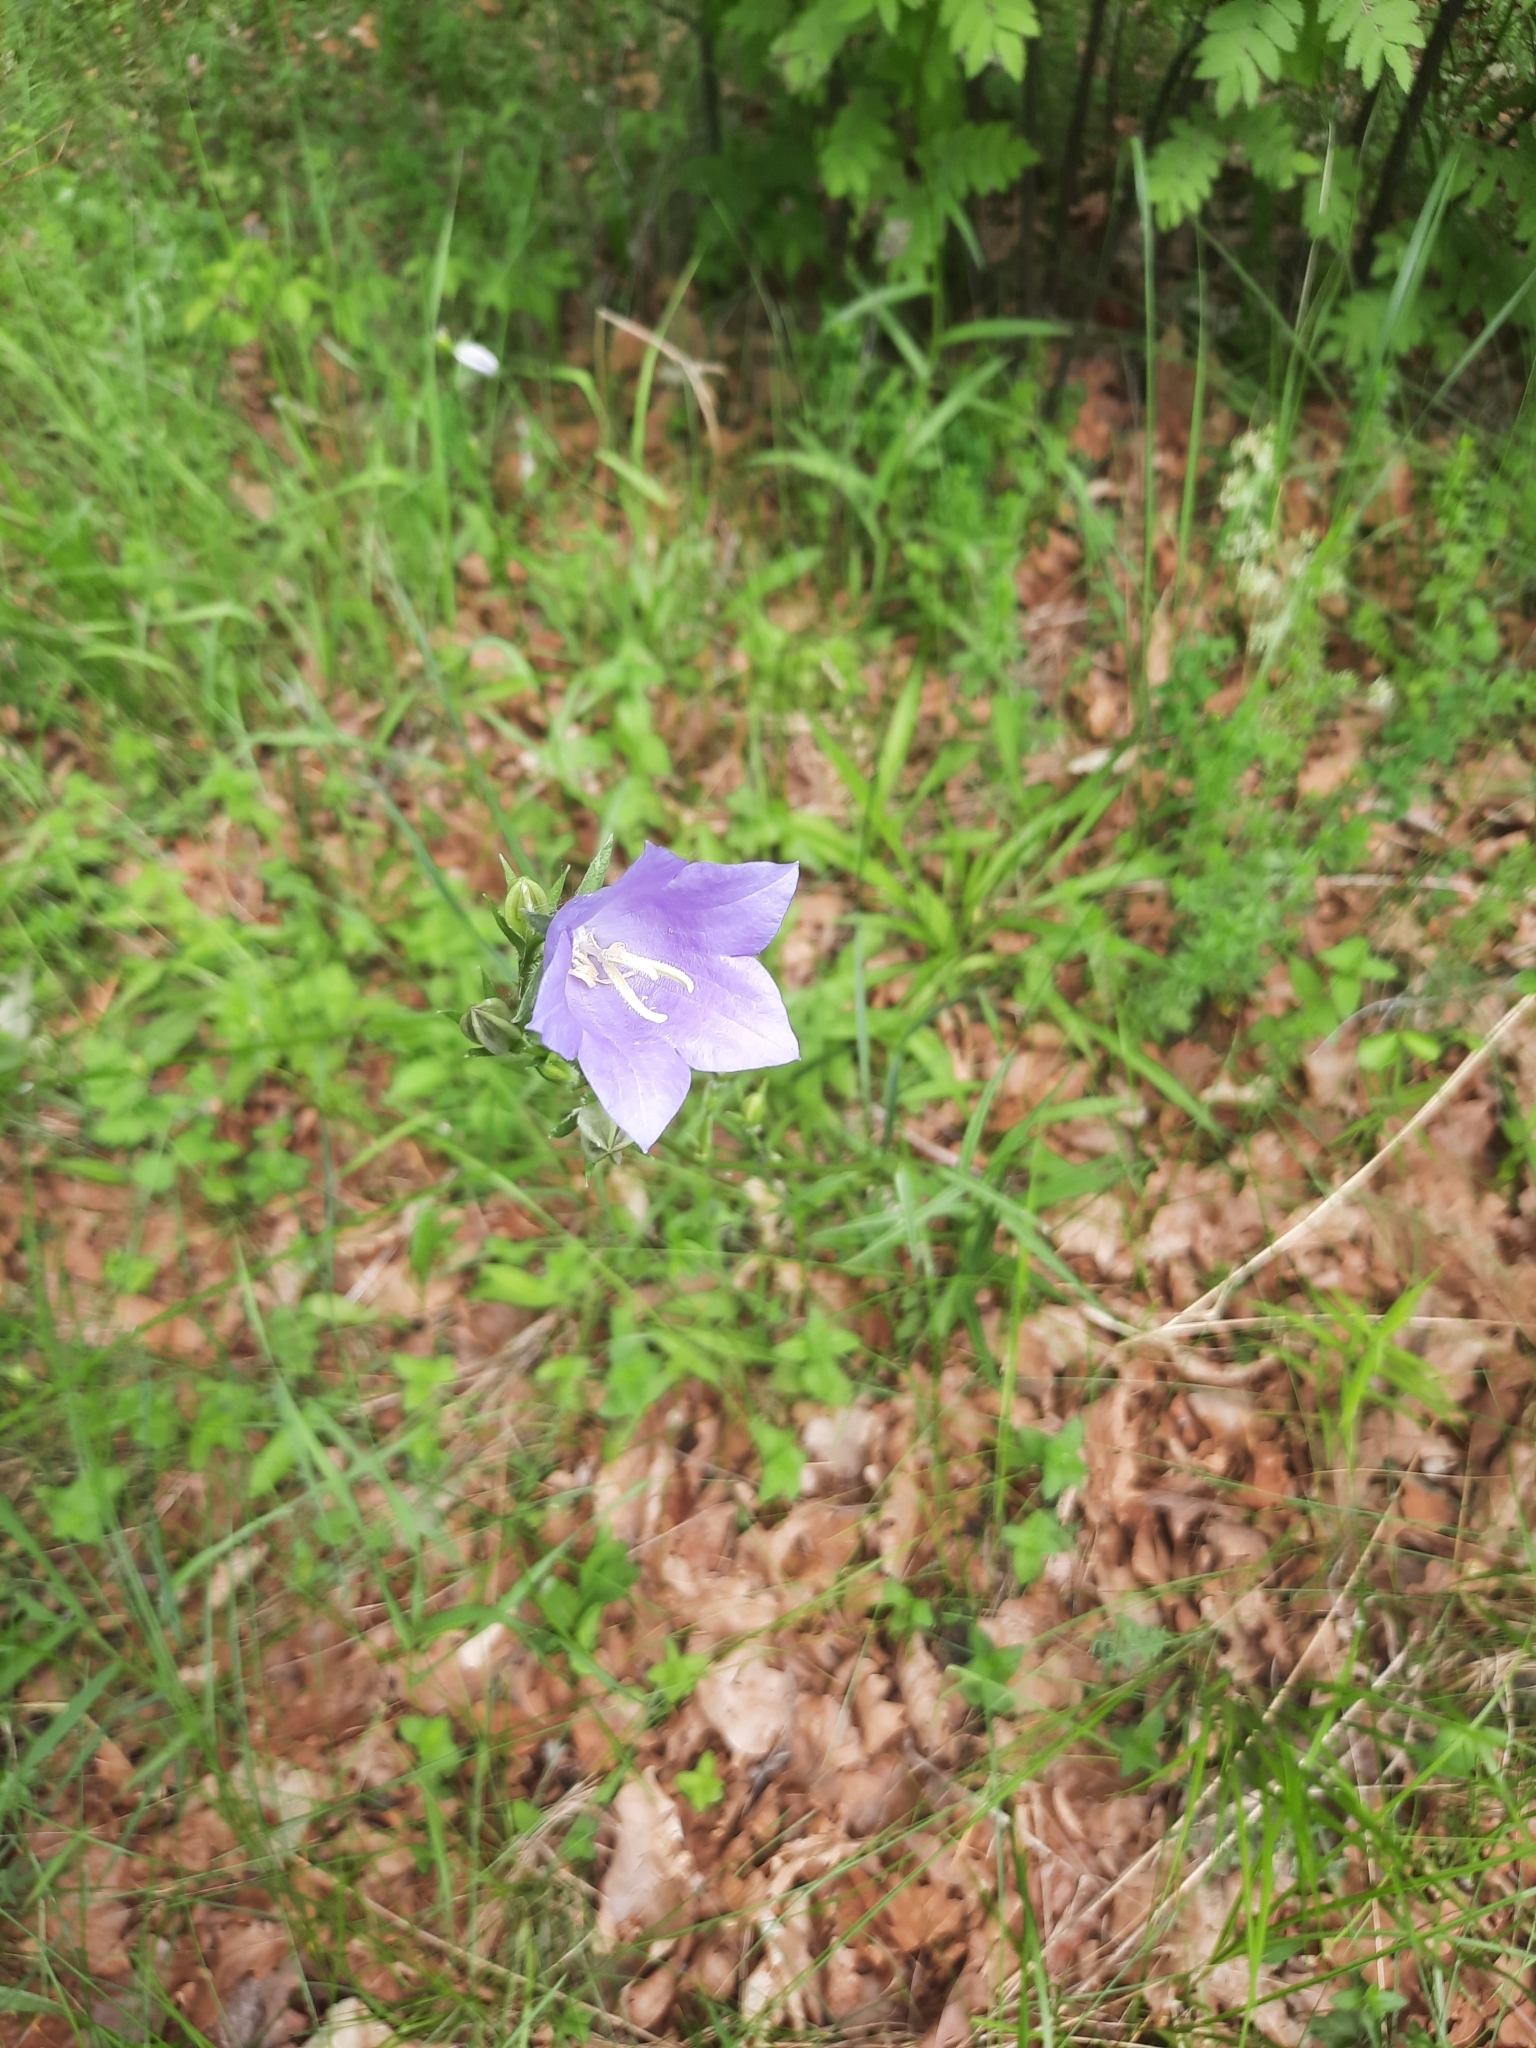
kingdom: Plantae
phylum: Tracheophyta
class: Magnoliopsida
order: Asterales
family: Campanulaceae
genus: Campanula
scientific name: Campanula persicifolia
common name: Peach-leaved bellflower
